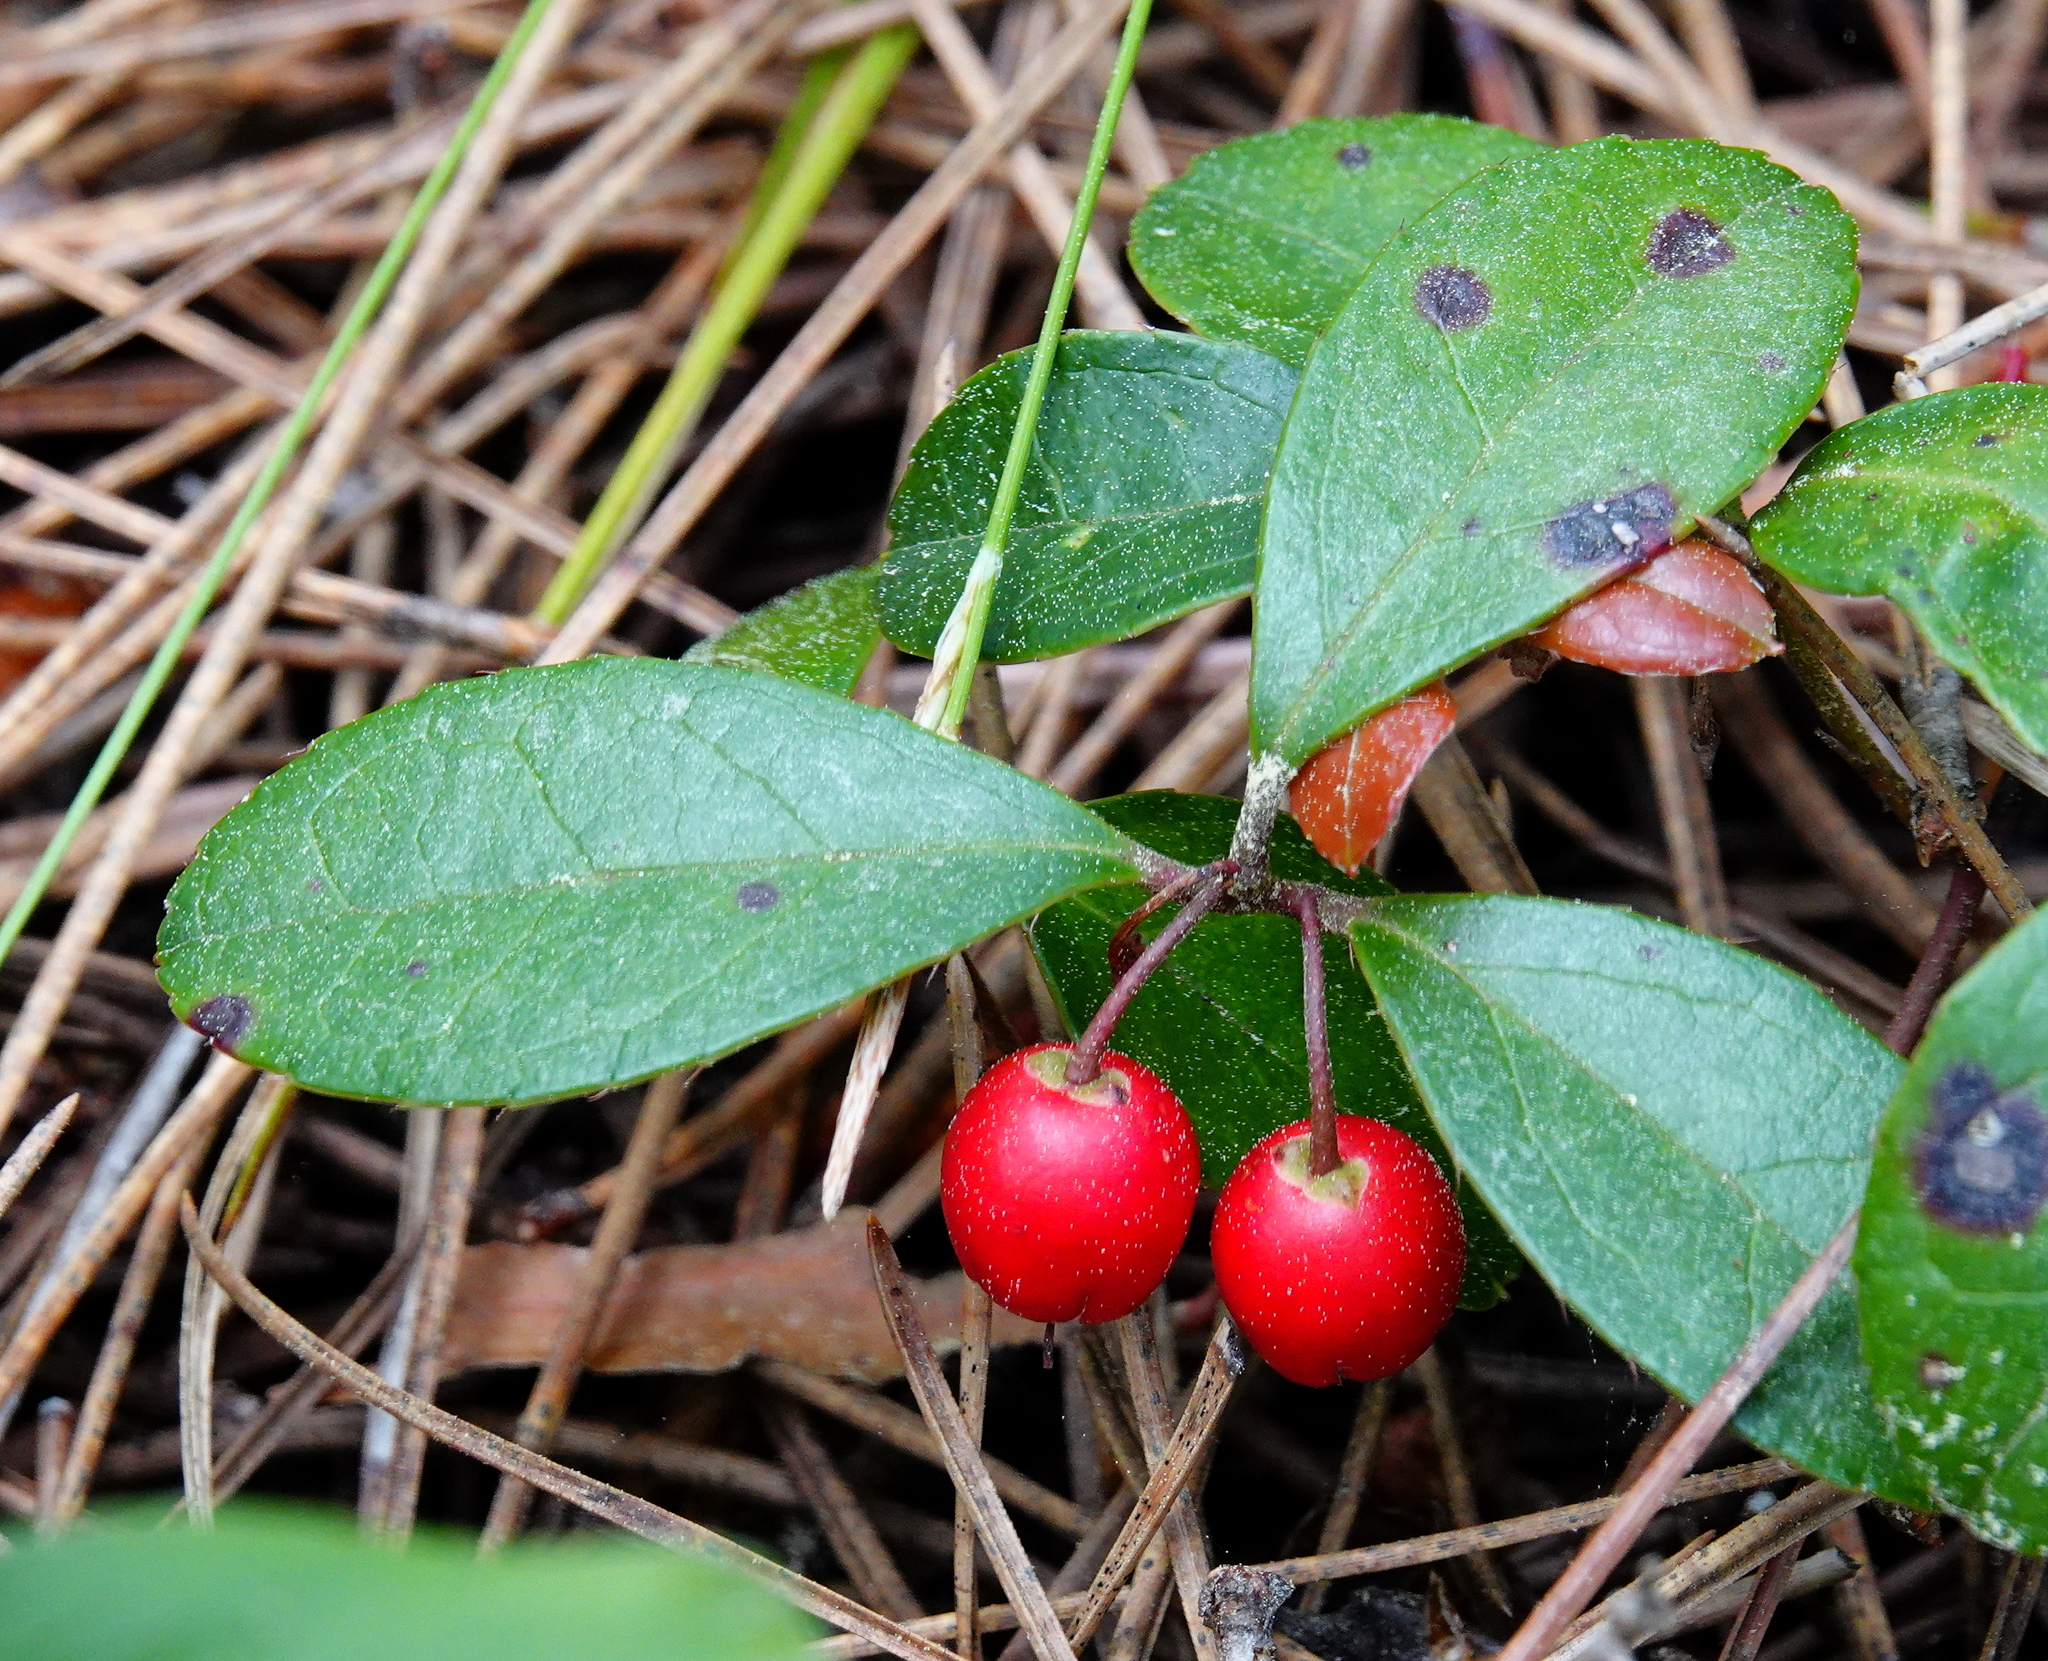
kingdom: Plantae
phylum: Tracheophyta
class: Magnoliopsida
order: Ericales
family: Ericaceae
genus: Gaultheria
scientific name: Gaultheria procumbens
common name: Checkerberry
